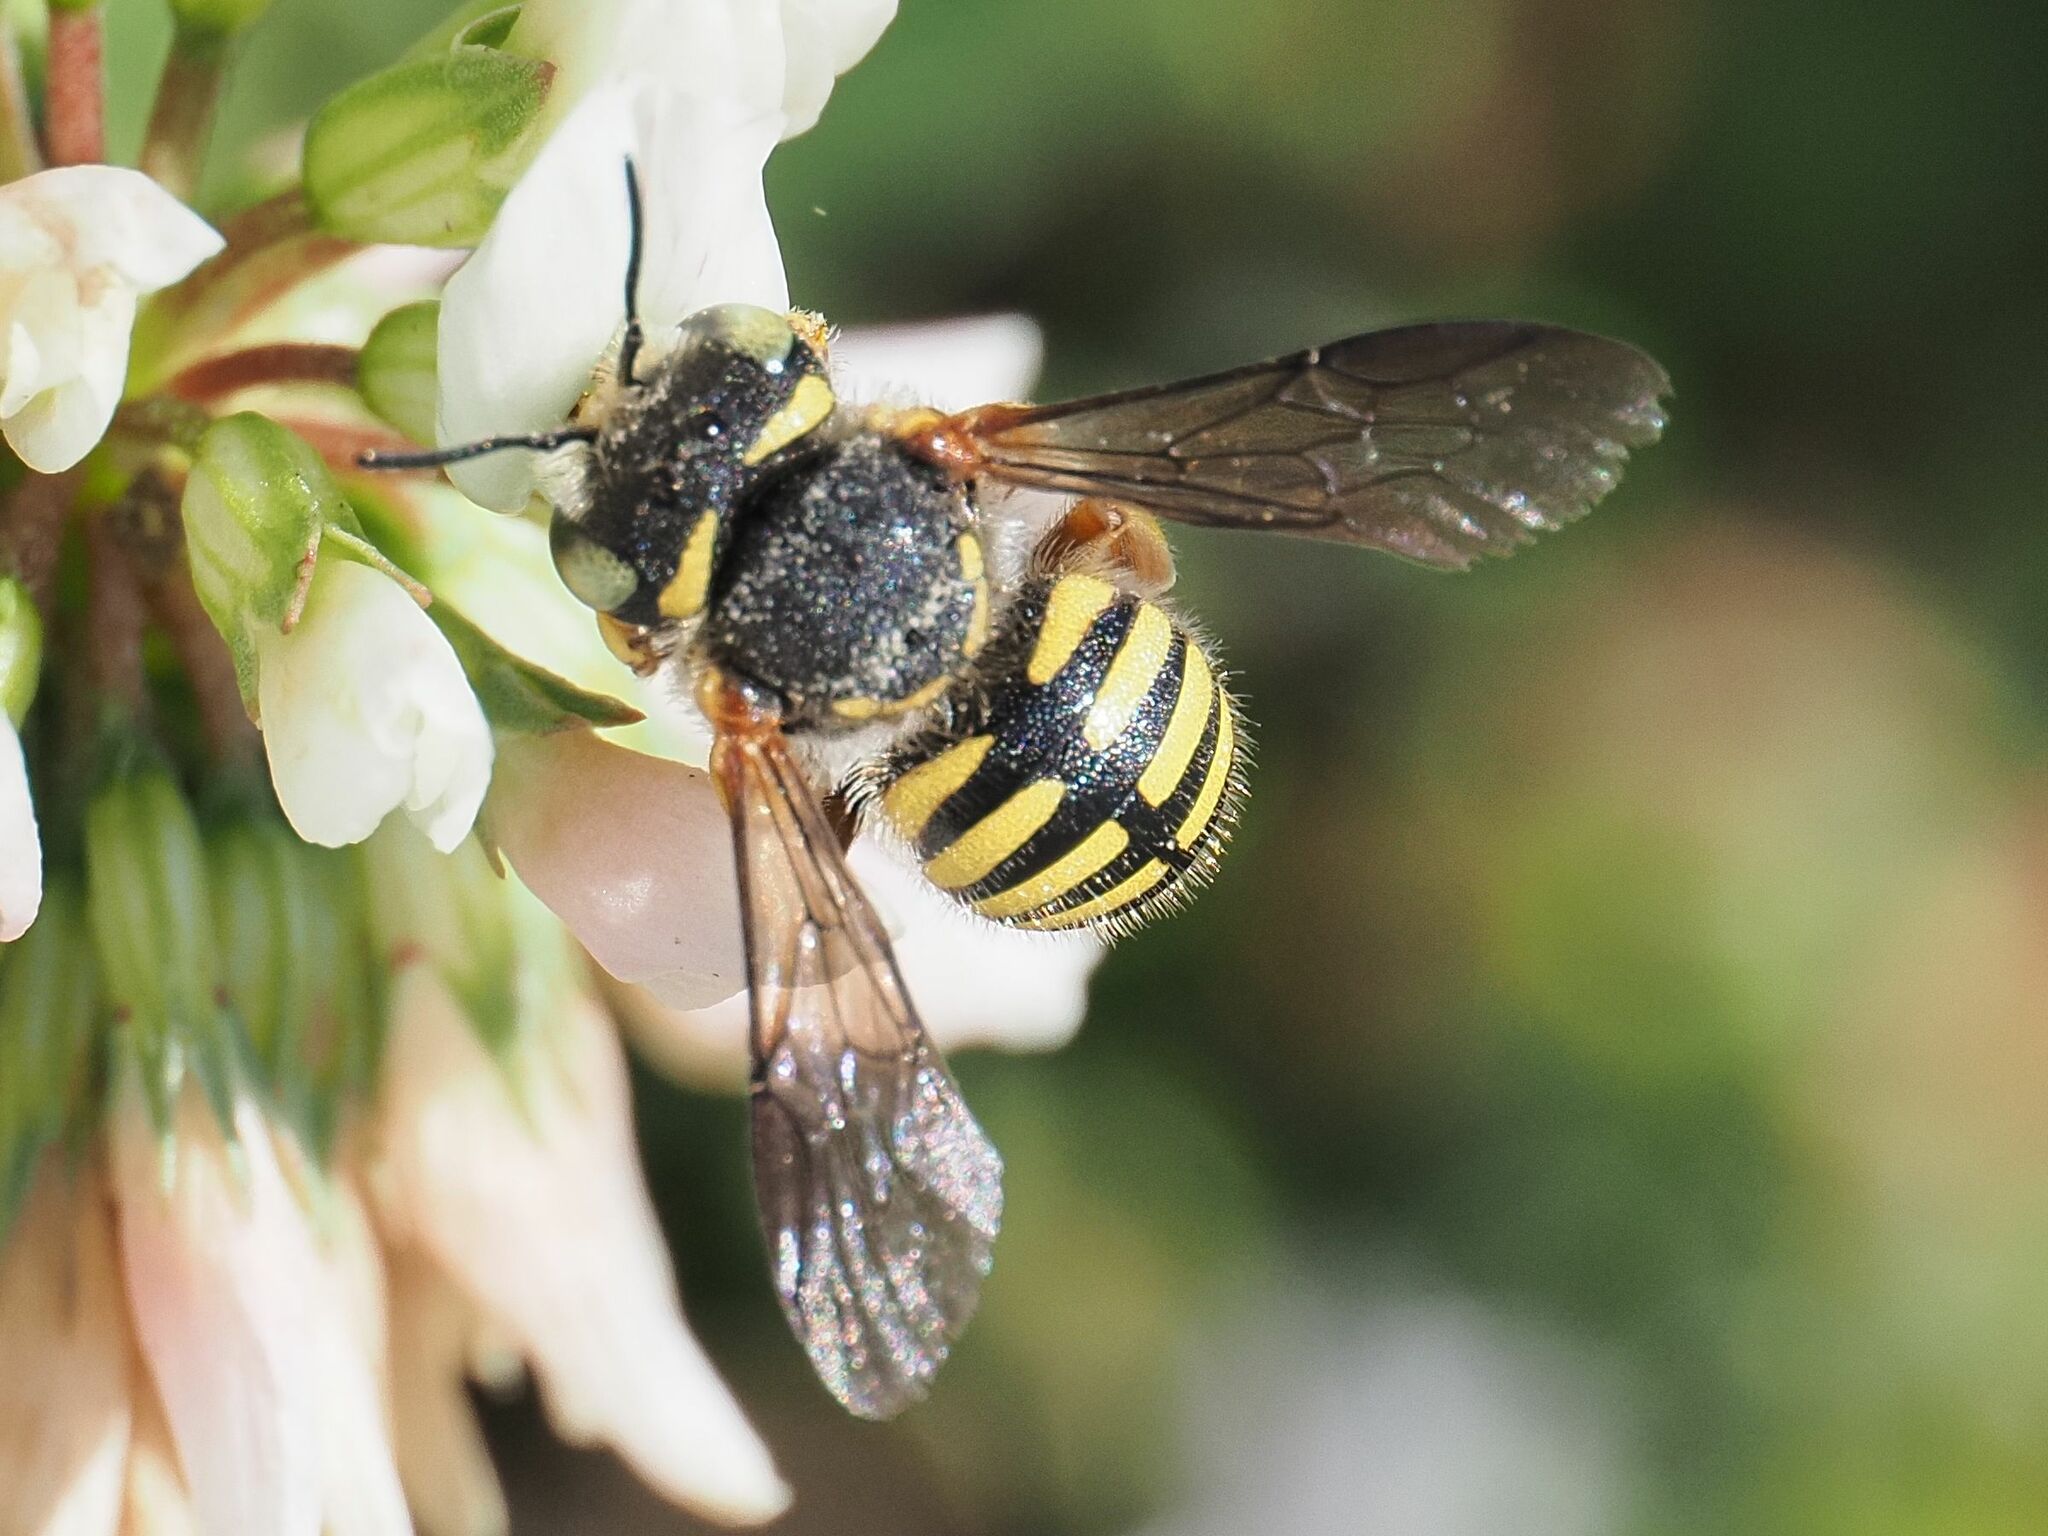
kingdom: Animalia
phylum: Arthropoda
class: Insecta
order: Hymenoptera
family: Megachilidae
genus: Anthidium
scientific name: Anthidium oblongatum
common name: Oblong wool carder bee
